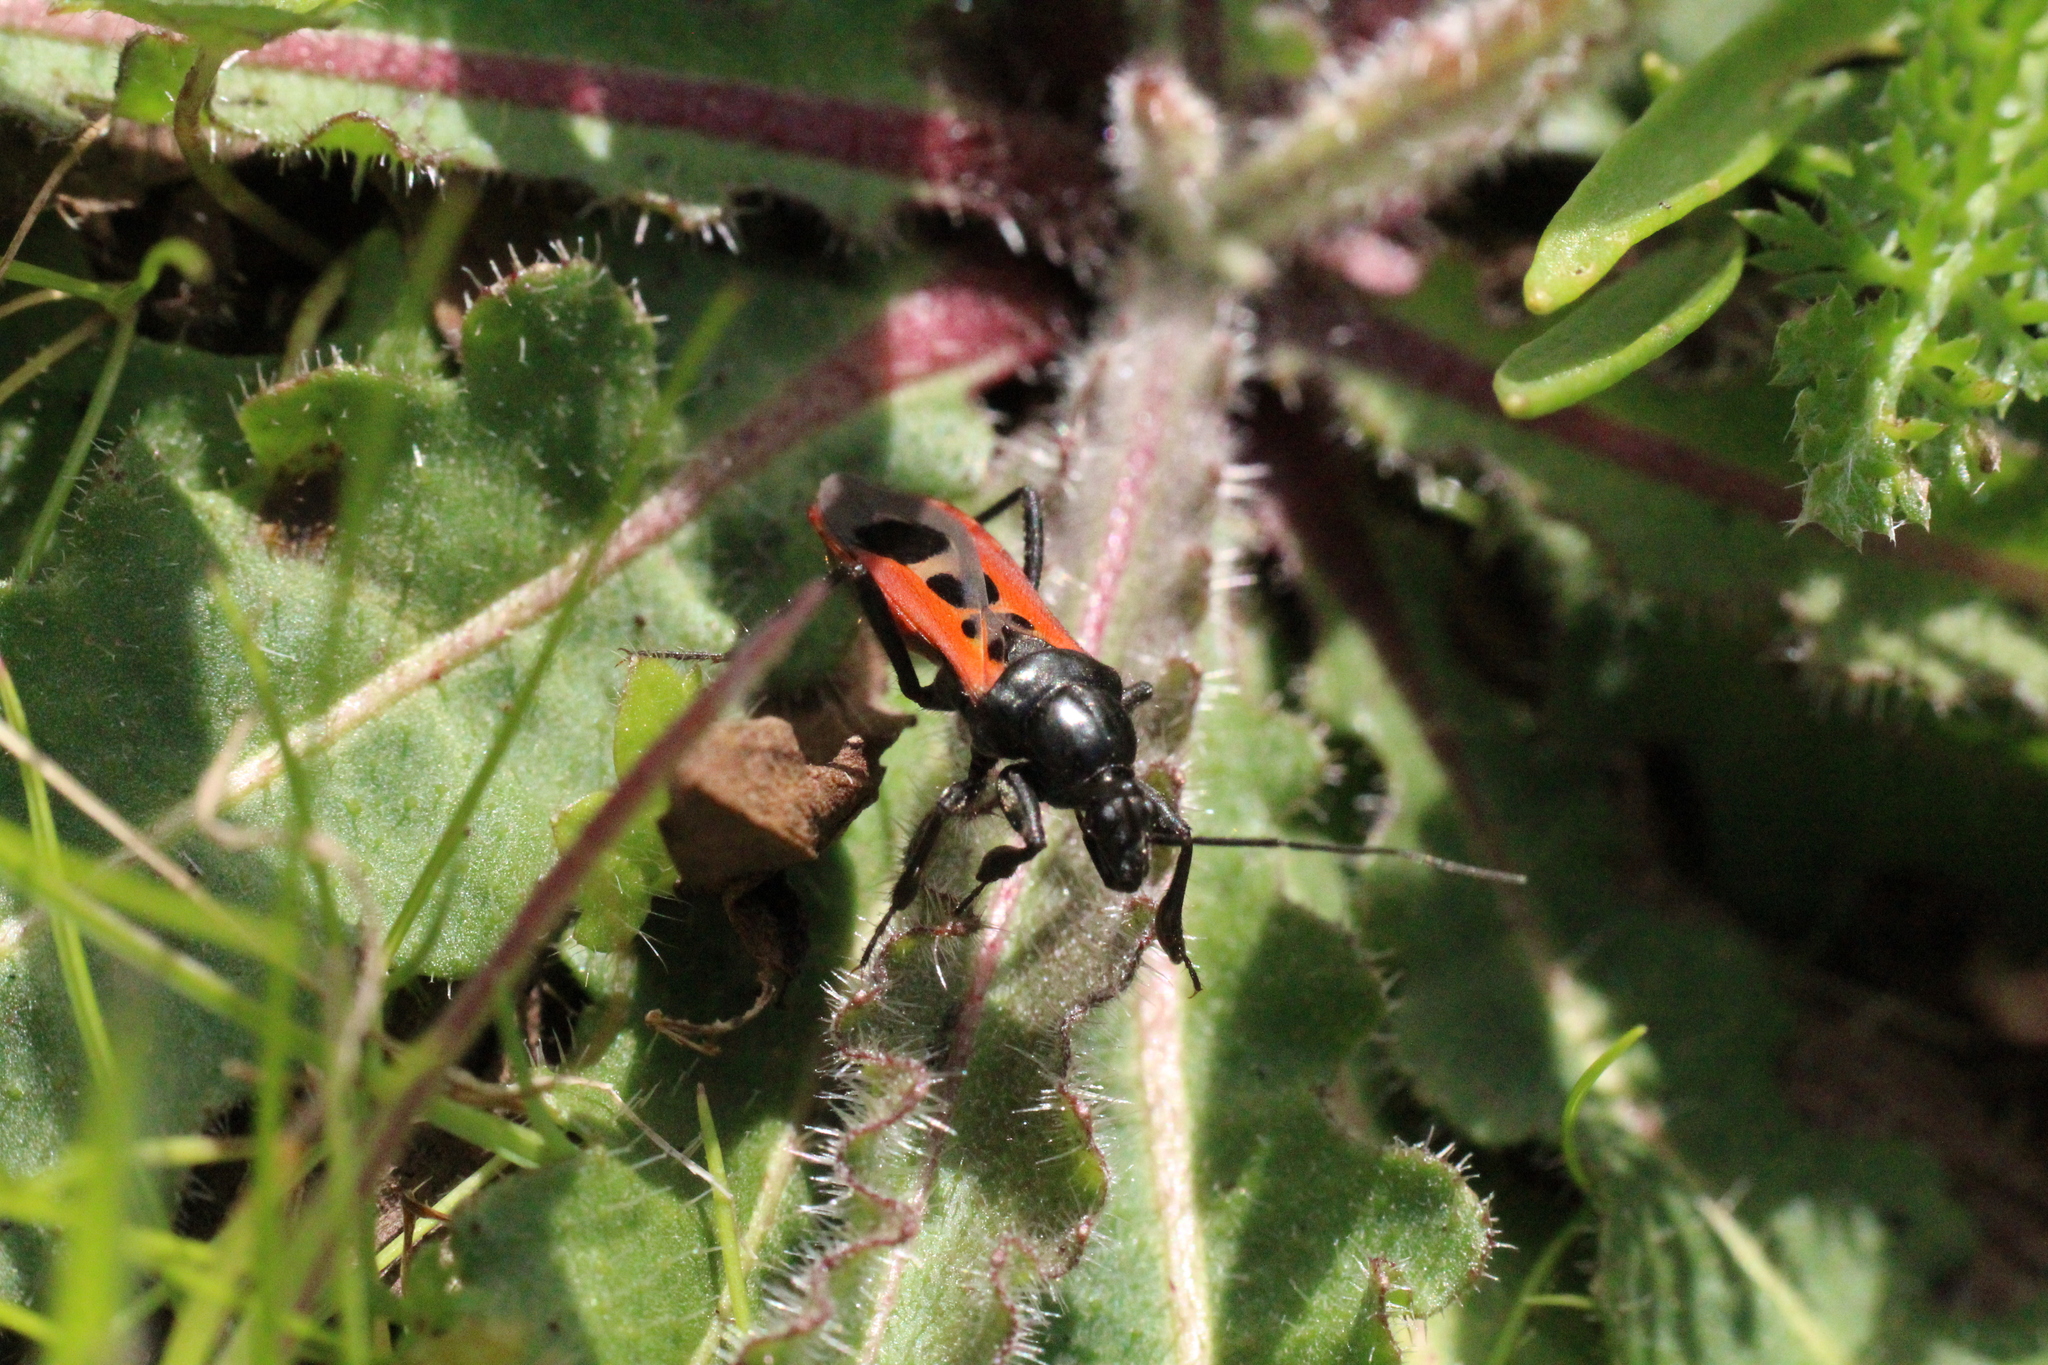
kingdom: Animalia
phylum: Arthropoda
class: Insecta
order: Hemiptera
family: Reduviidae
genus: Peirates
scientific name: Peirates stridulus
